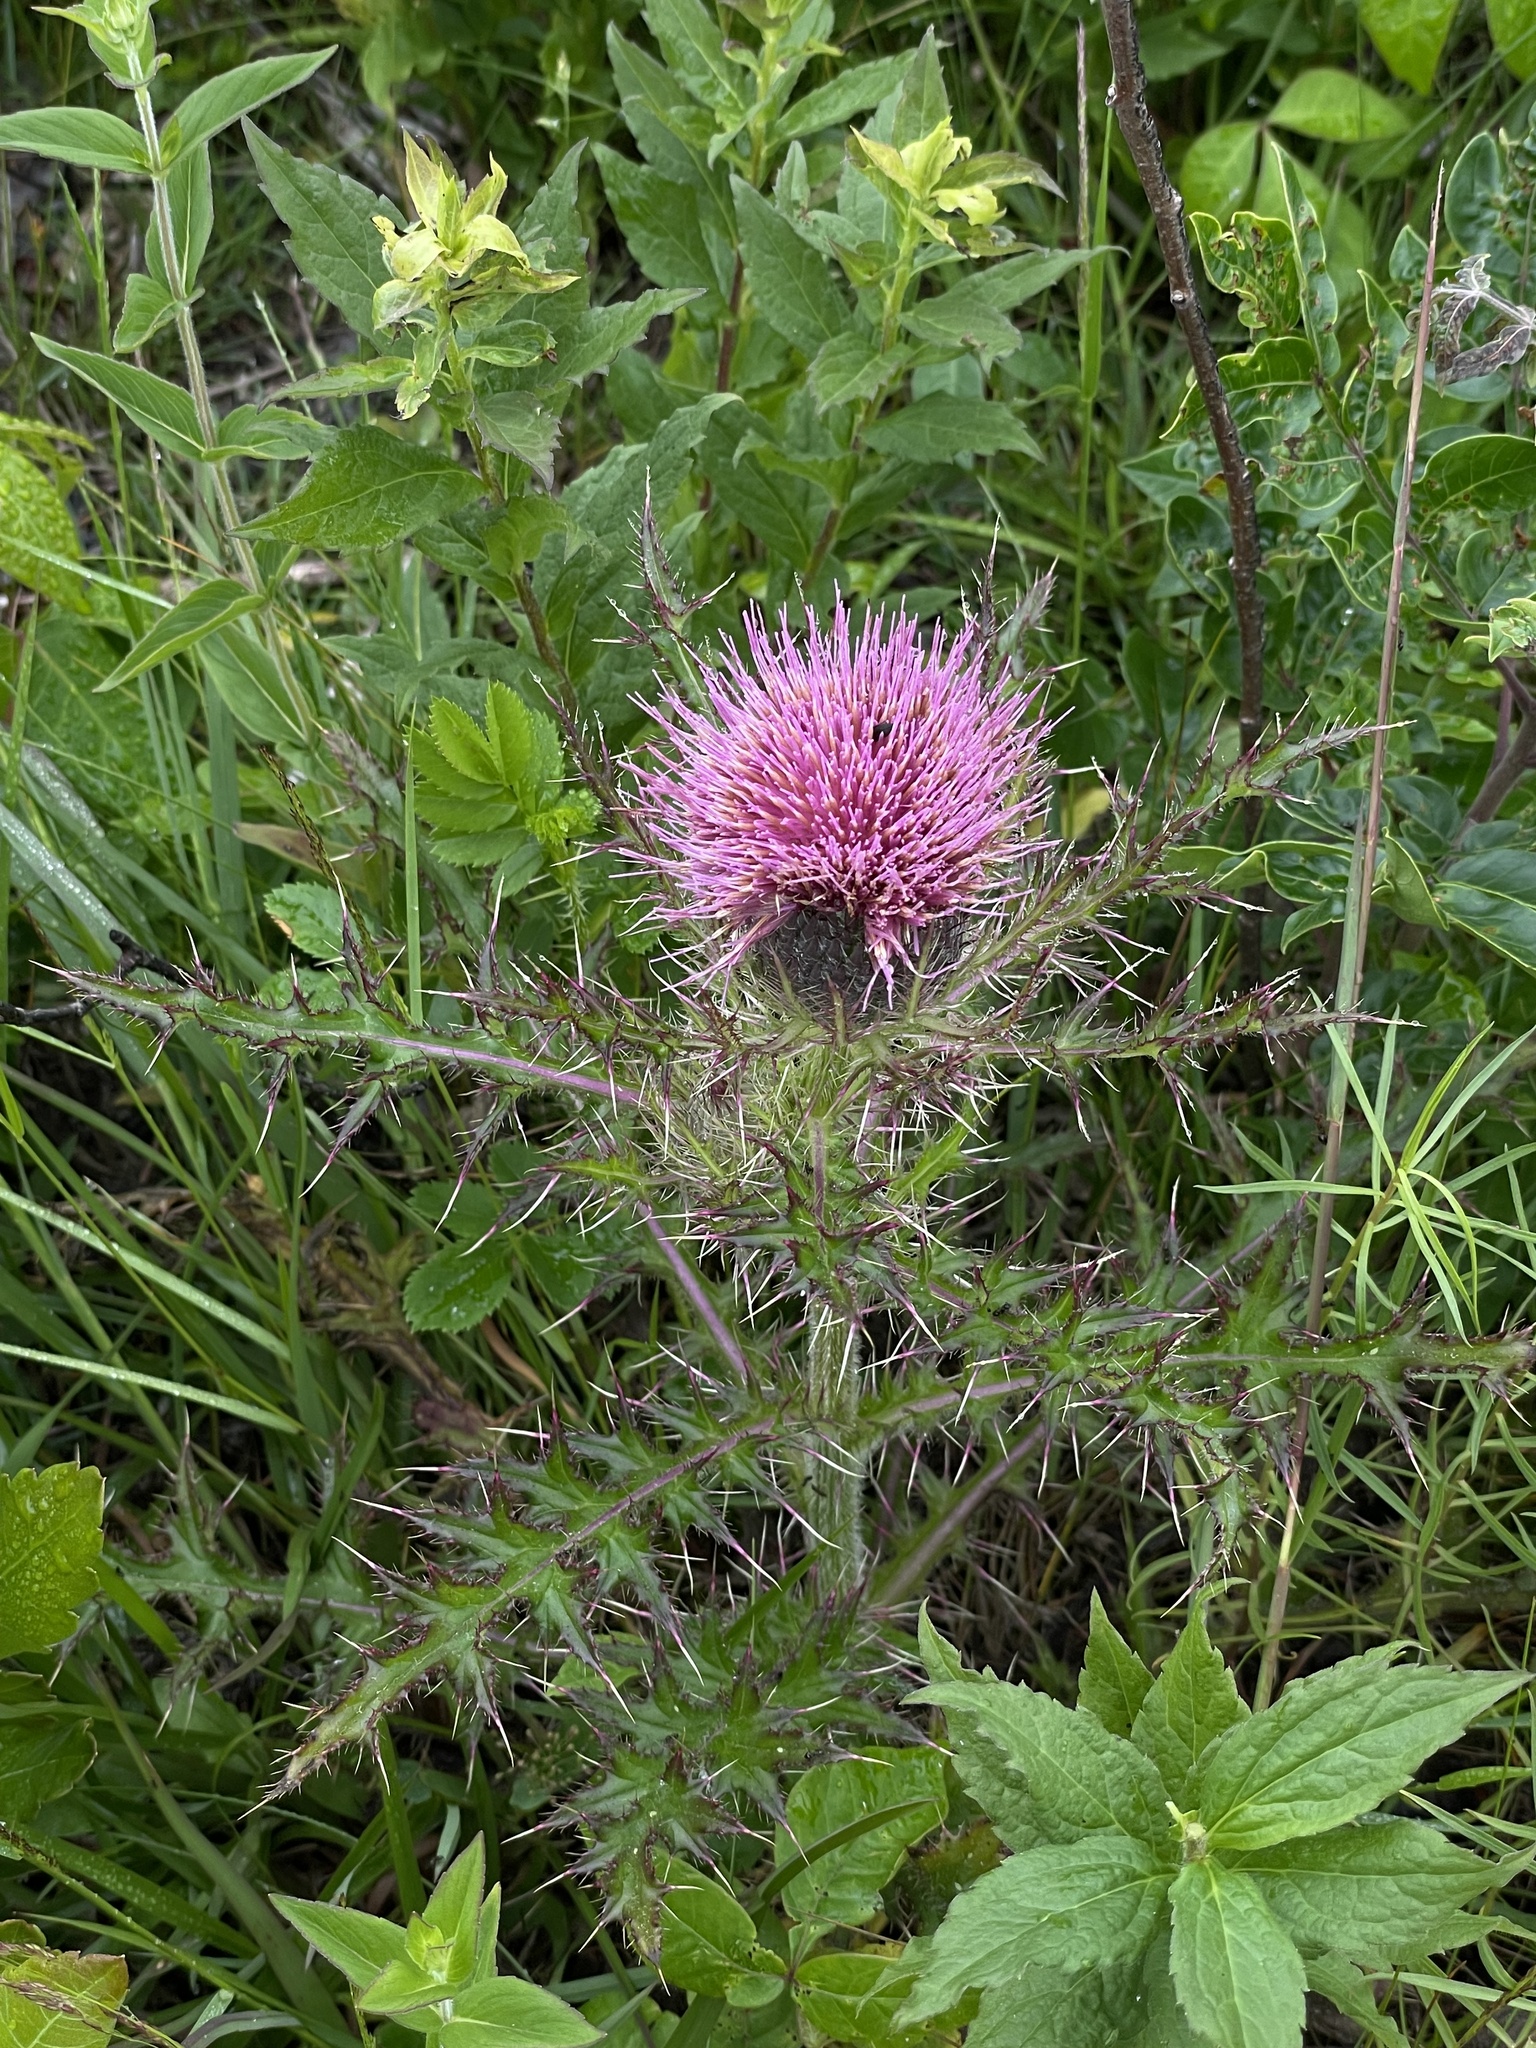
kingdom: Plantae
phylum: Tracheophyta
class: Magnoliopsida
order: Asterales
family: Asteraceae
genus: Cirsium
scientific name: Cirsium horridulum
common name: Bristly thistle
